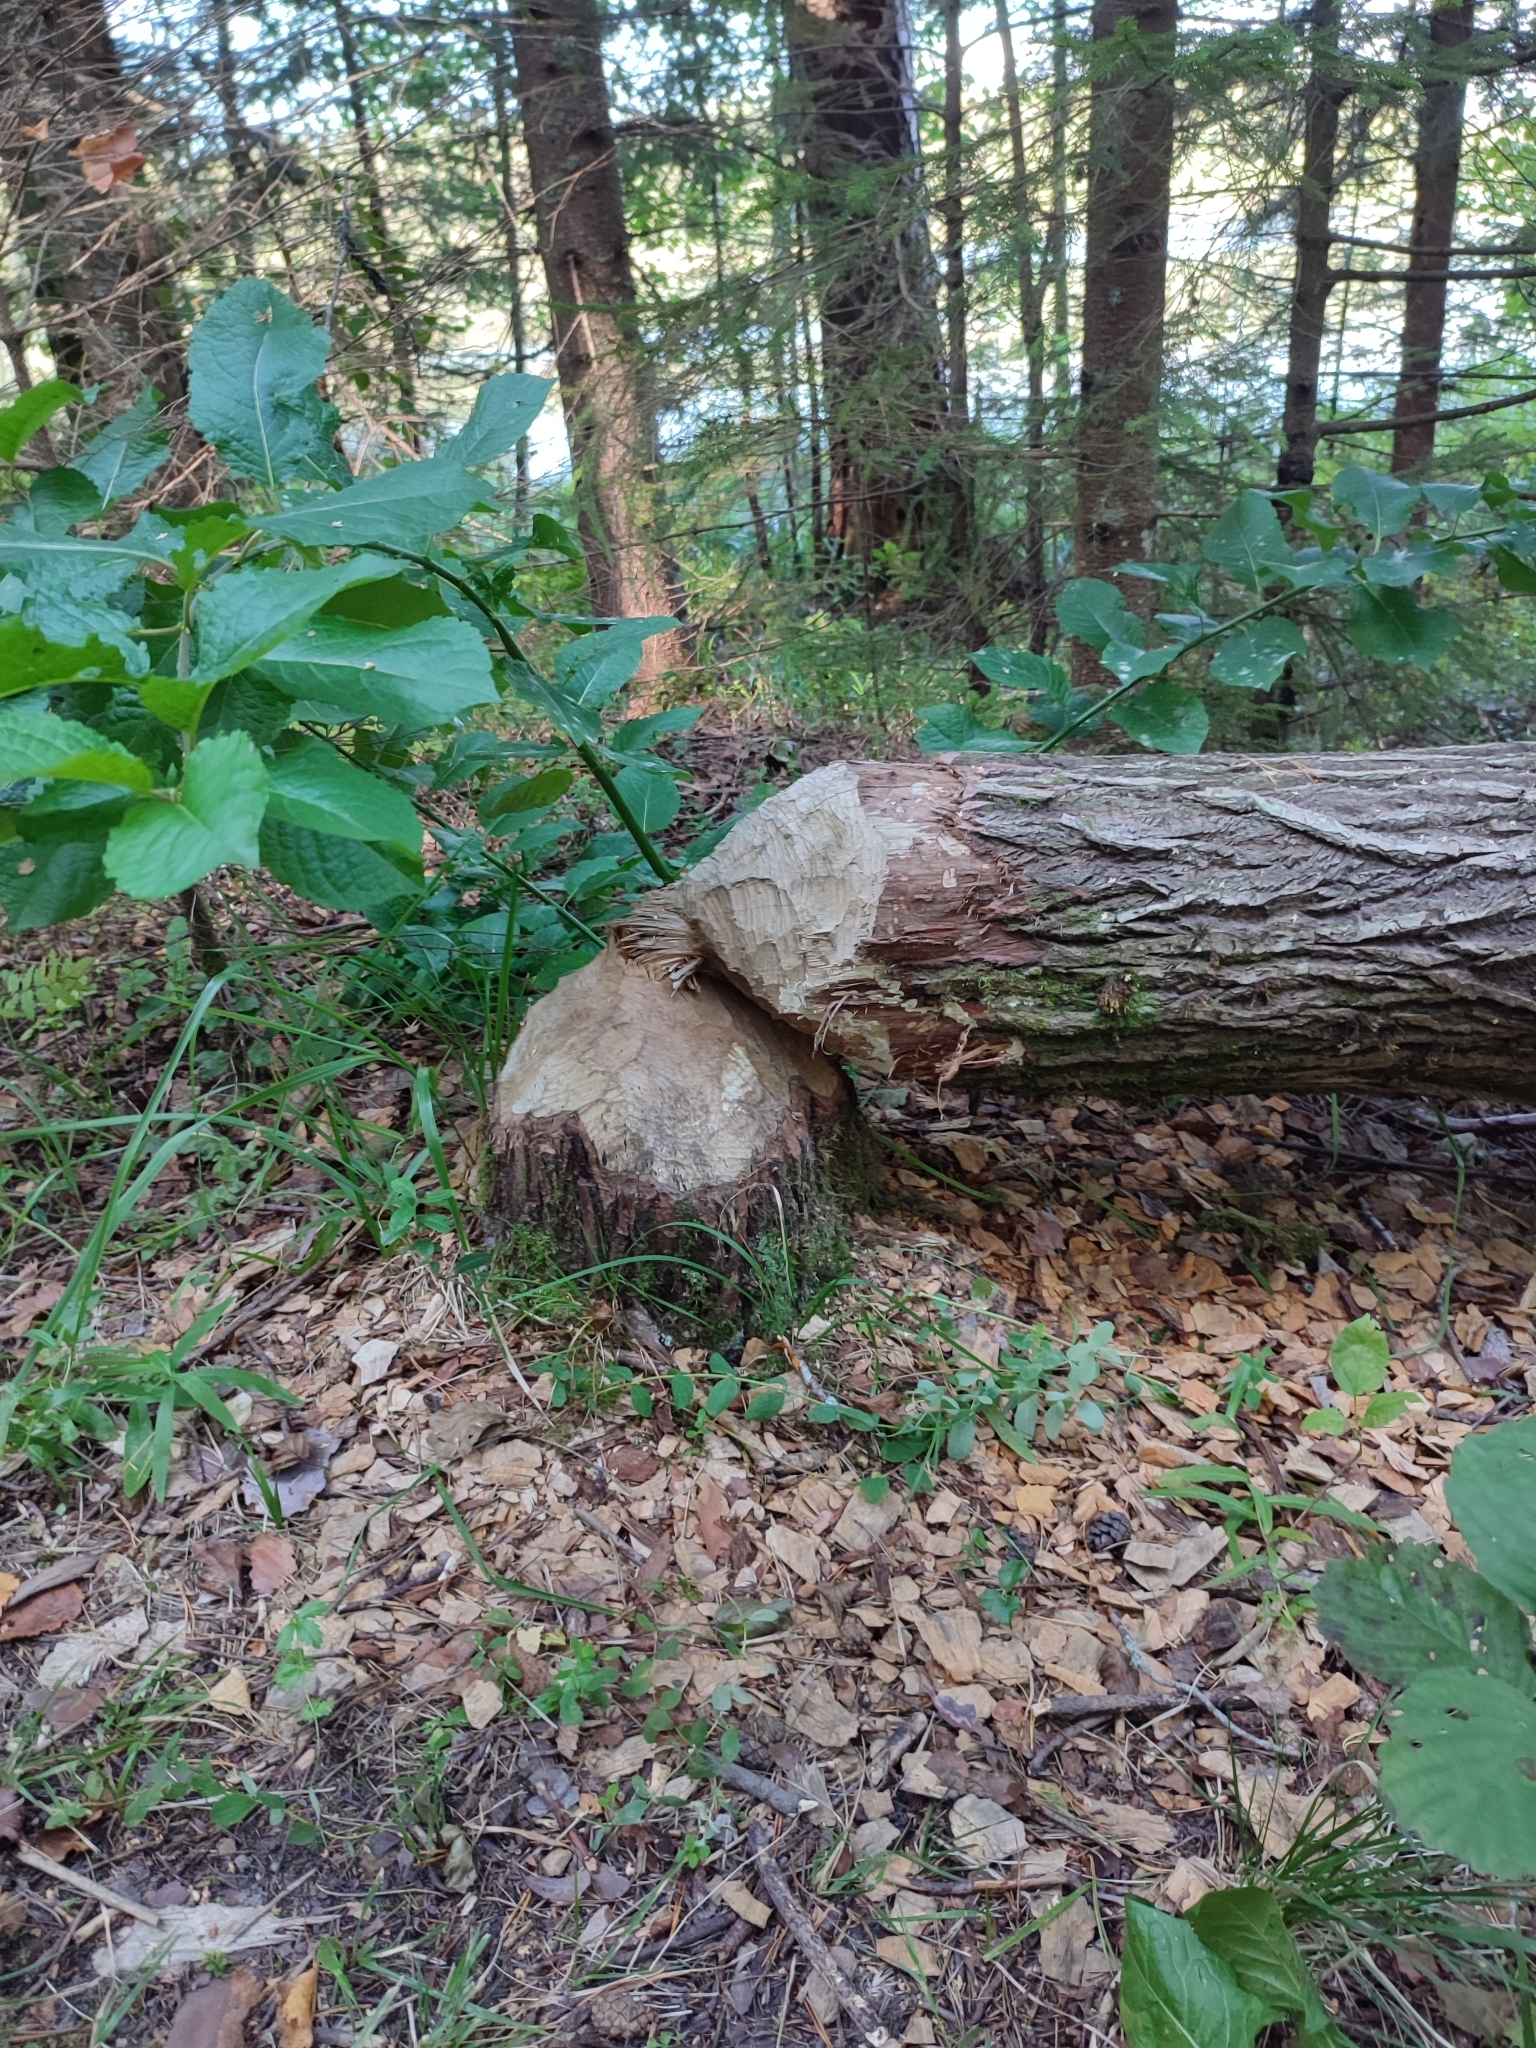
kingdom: Animalia
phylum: Chordata
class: Mammalia
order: Rodentia
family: Castoridae
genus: Castor
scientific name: Castor
